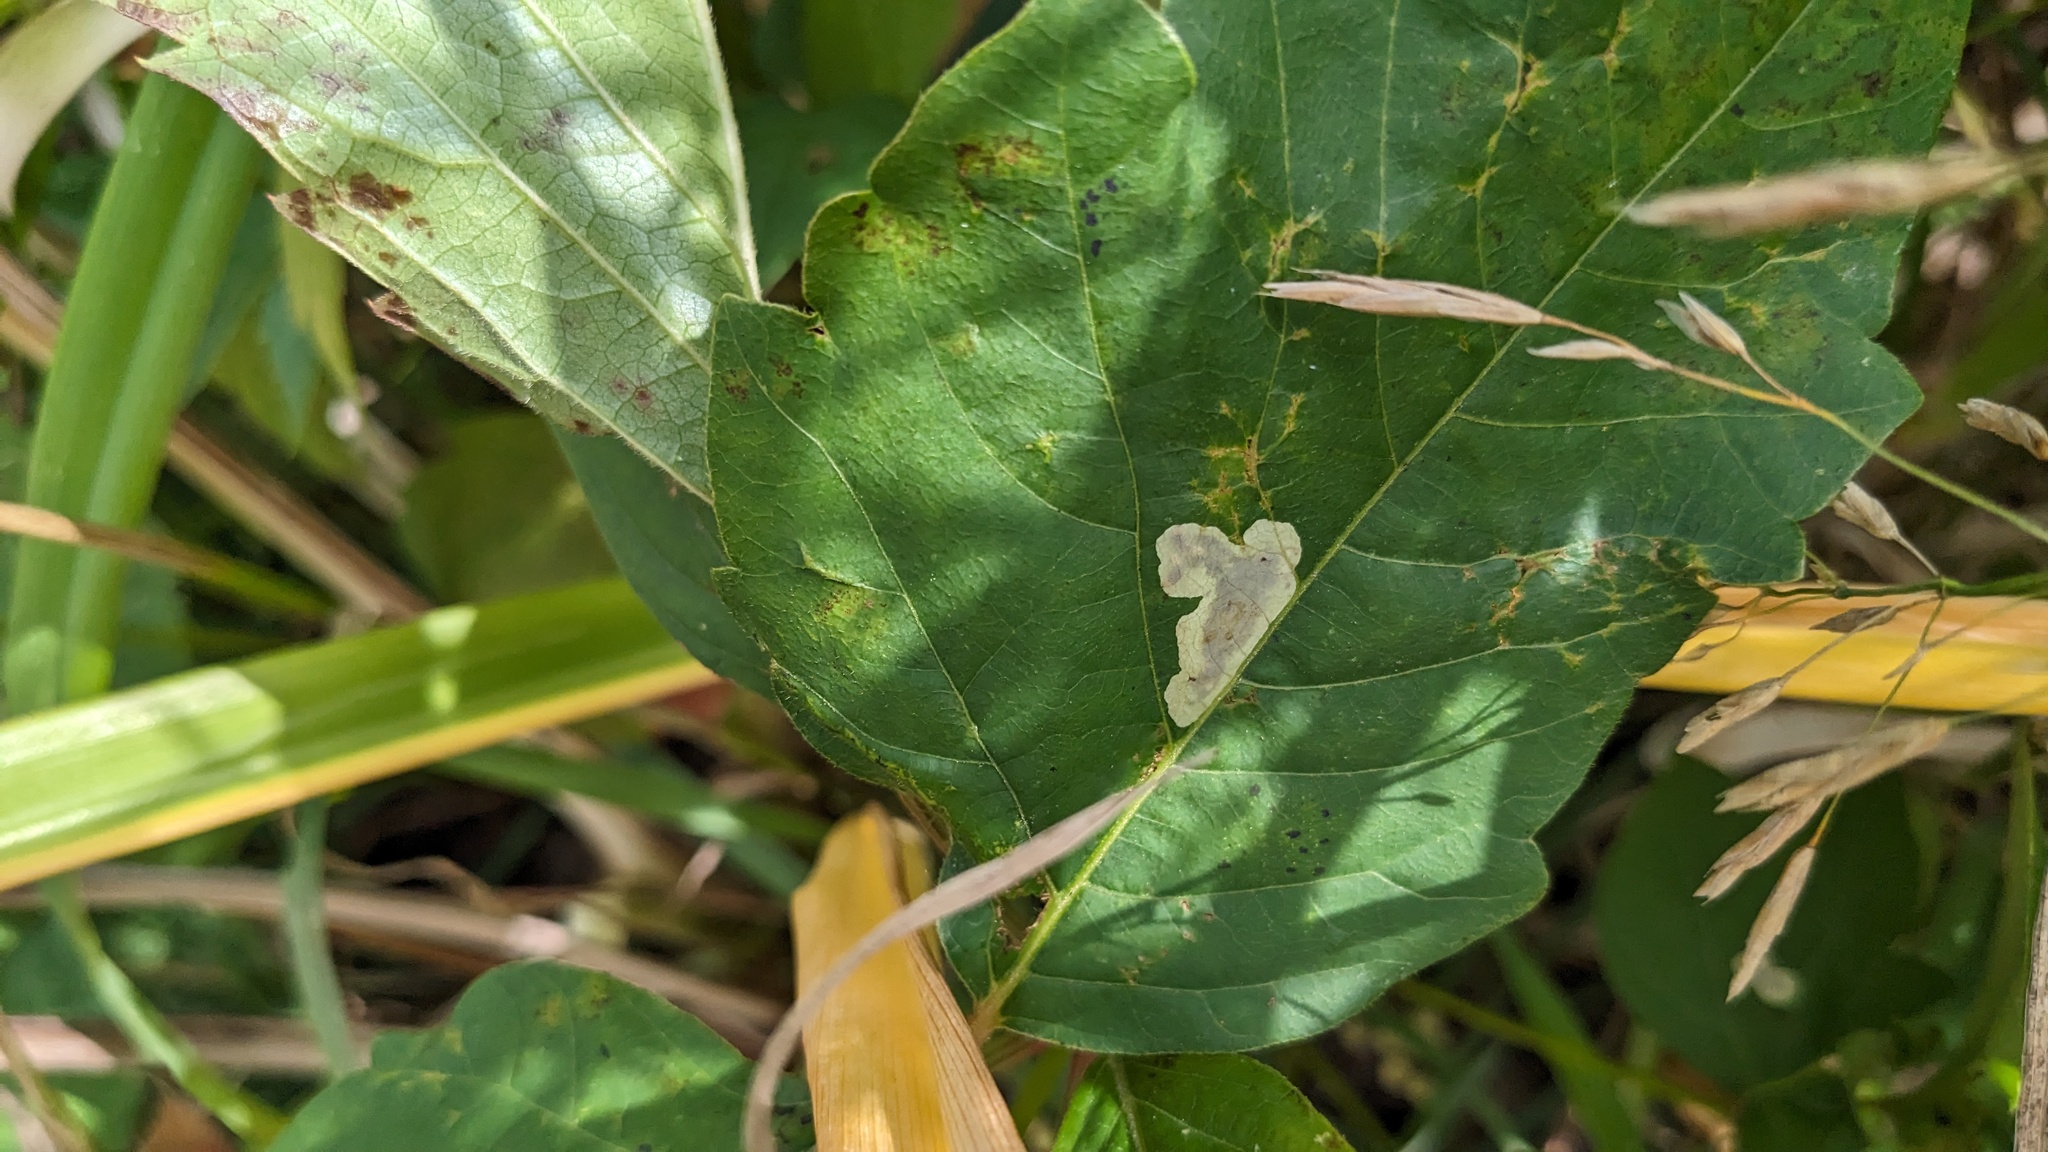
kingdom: Animalia
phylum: Arthropoda
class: Insecta
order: Lepidoptera
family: Gracillariidae
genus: Cameraria
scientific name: Cameraria guttifinitella
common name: Poison ivy leaf-miner moth
